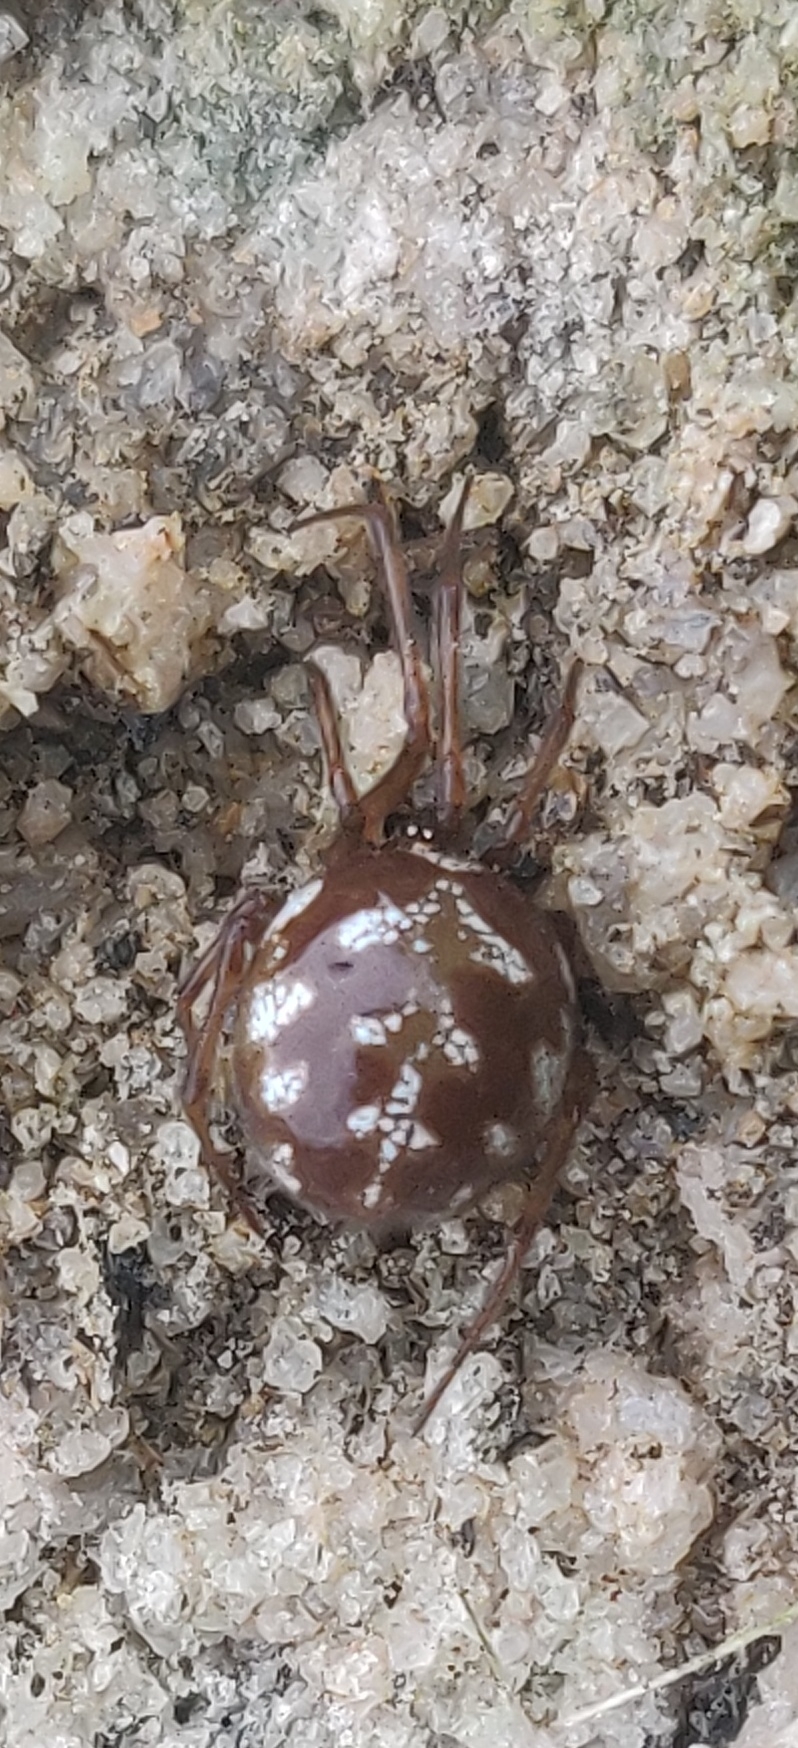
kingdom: Animalia
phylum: Arthropoda
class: Arachnida
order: Araneae
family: Theridiidae
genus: Steatoda
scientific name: Steatoda triangulosa
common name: Triangulate bud spider
